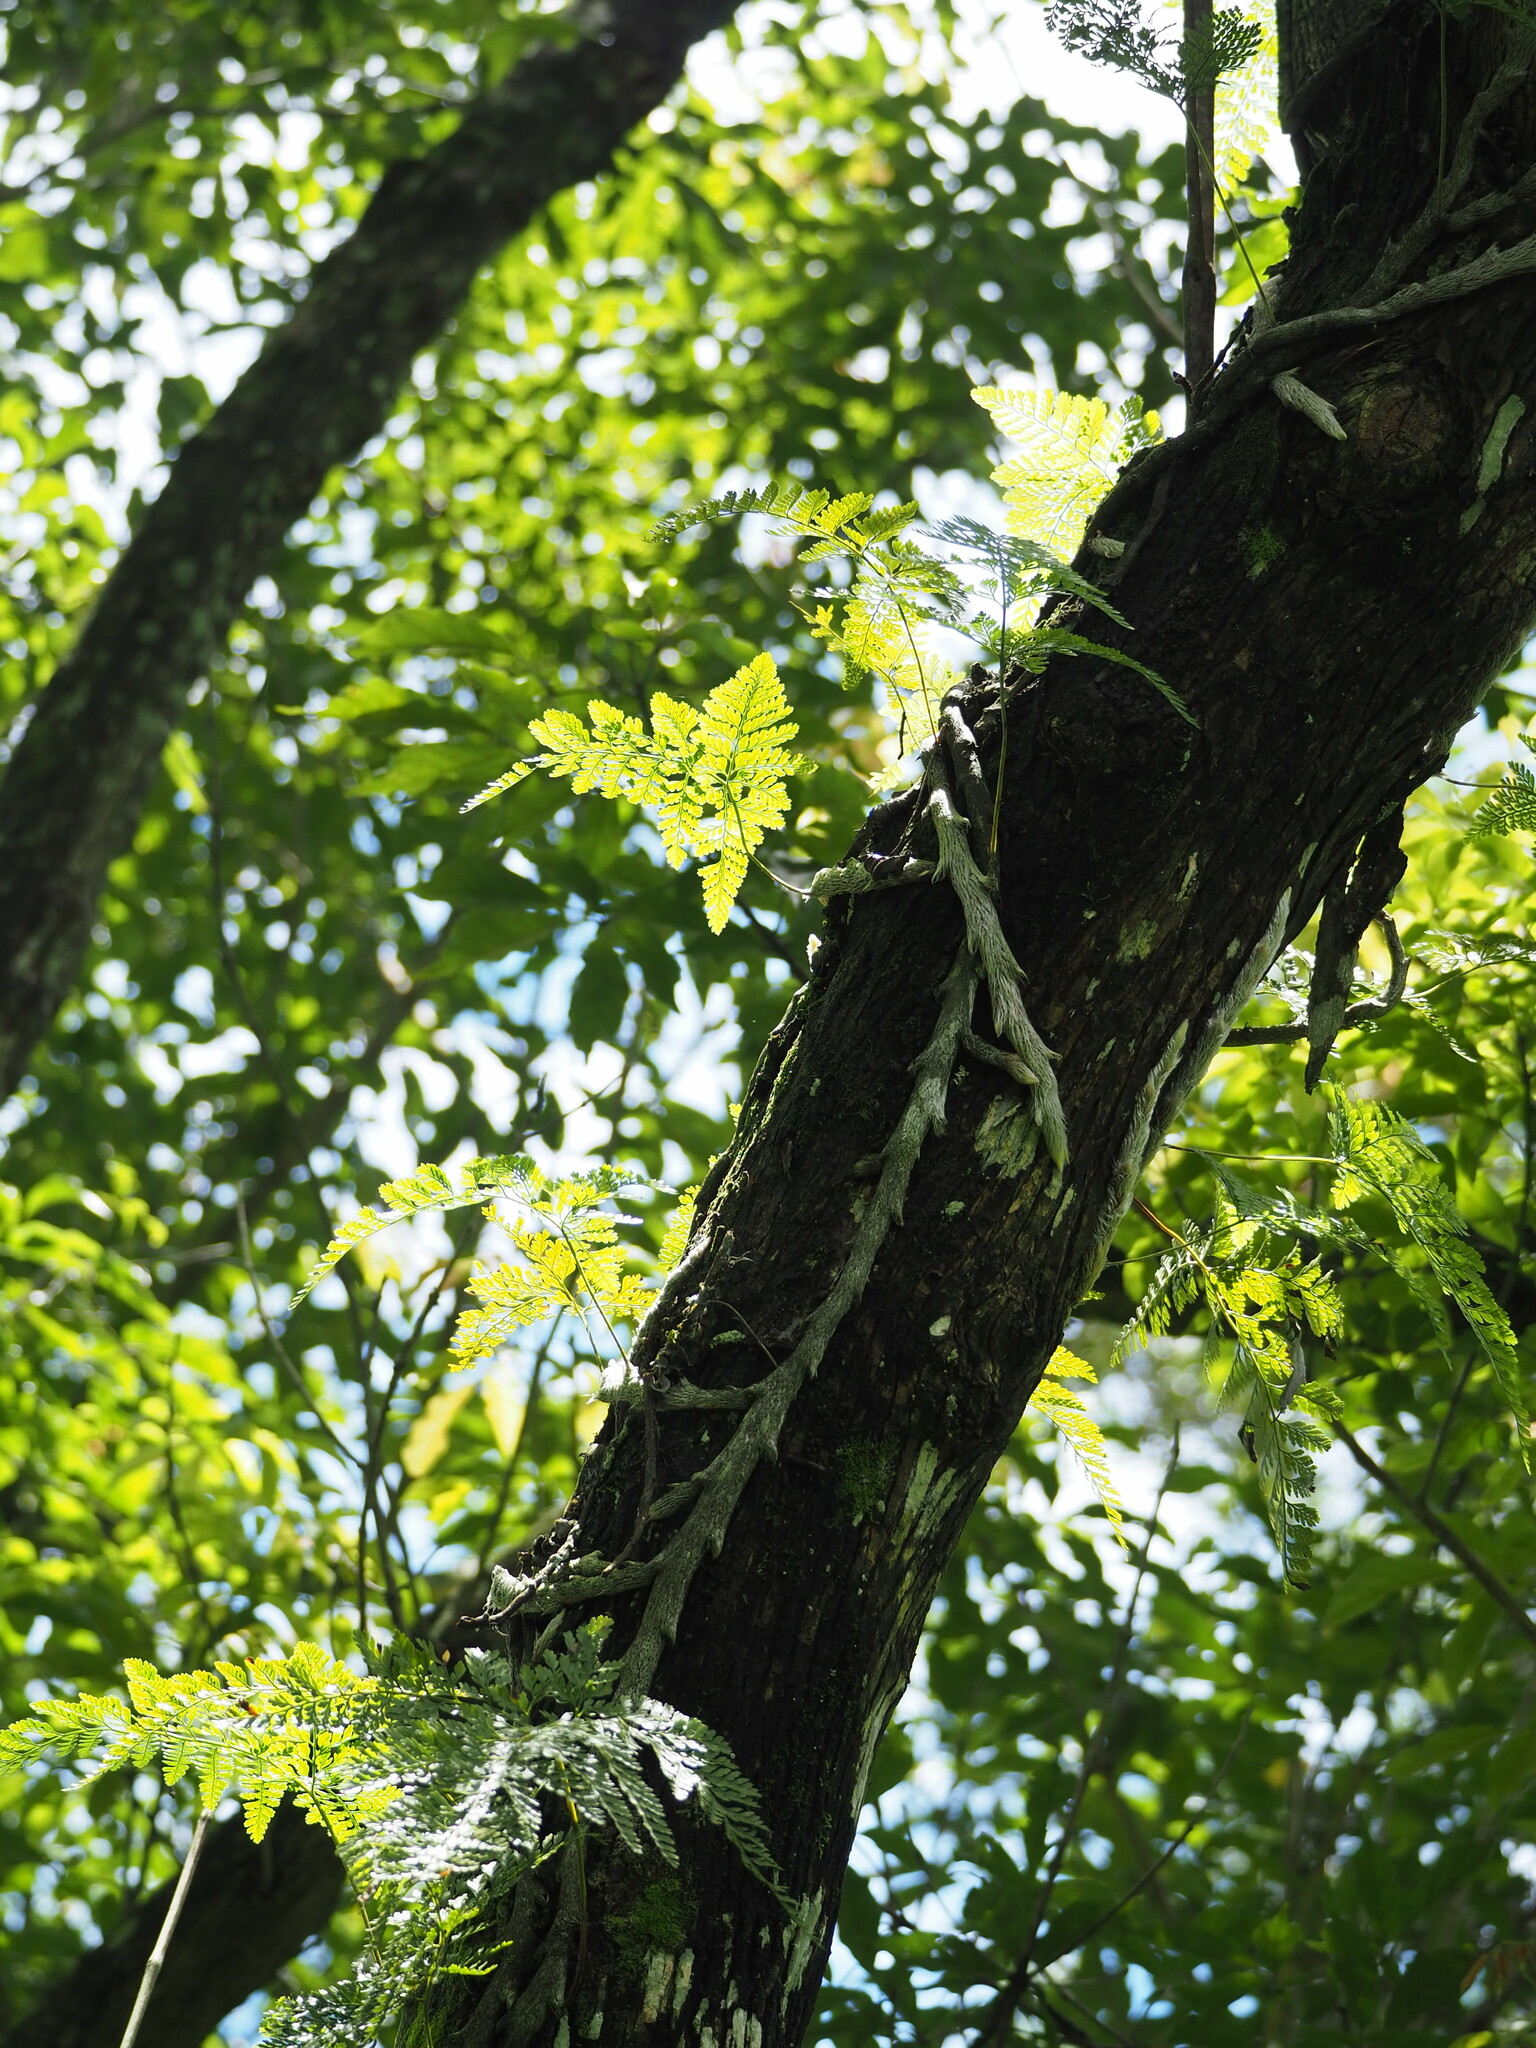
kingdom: Plantae
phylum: Tracheophyta
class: Polypodiopsida
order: Polypodiales
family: Davalliaceae
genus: Davallia
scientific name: Davallia griffithiana
